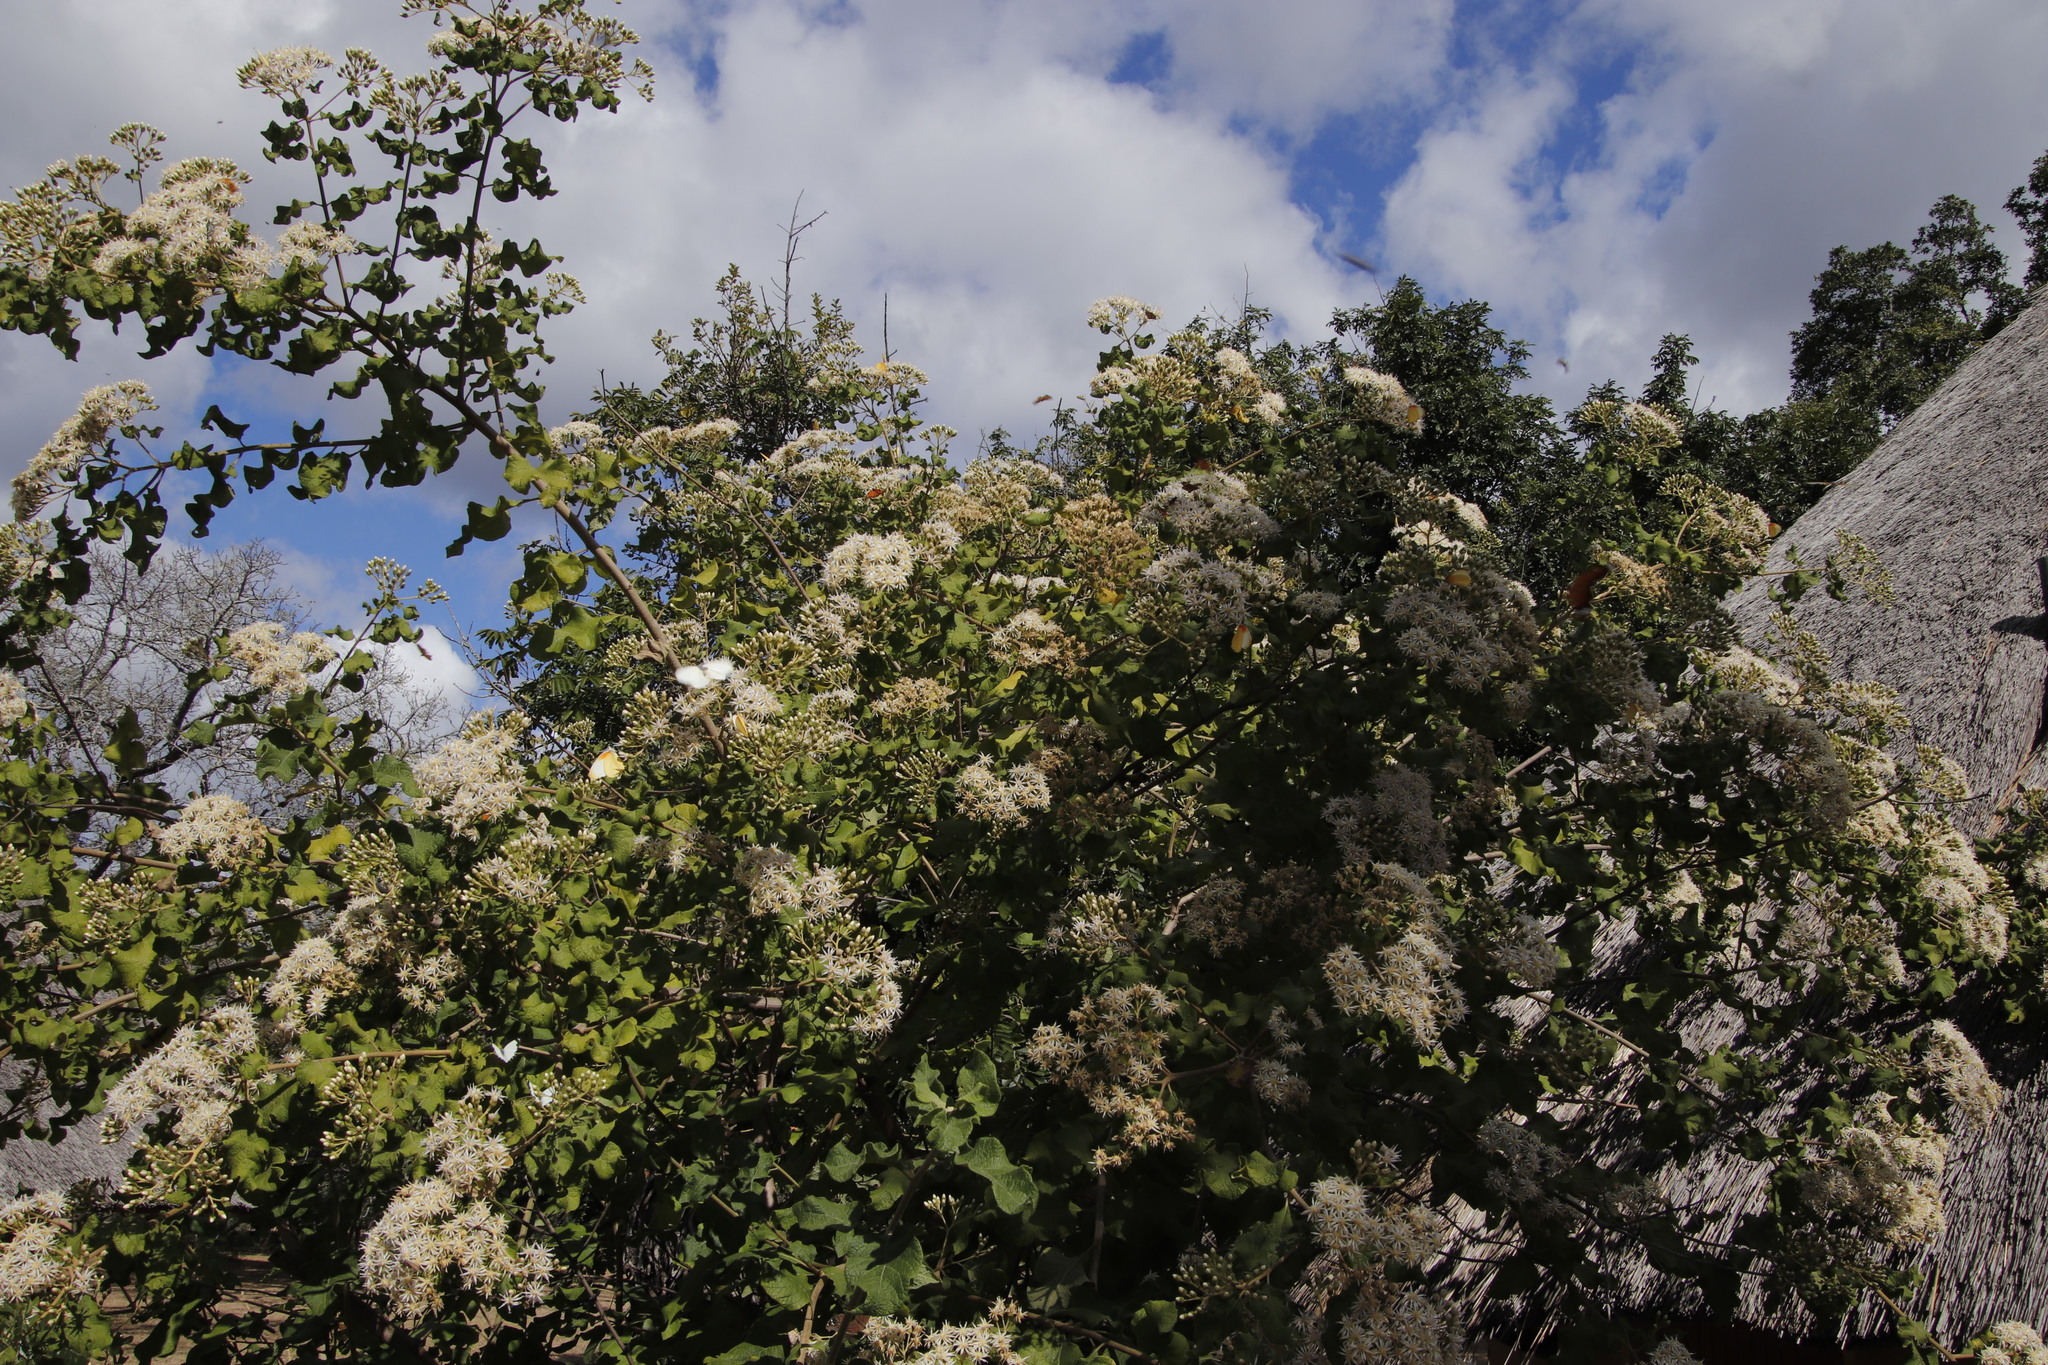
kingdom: Plantae
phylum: Tracheophyta
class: Magnoliopsida
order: Asterales
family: Asteraceae
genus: Vernonia
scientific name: Vernonia colorata
